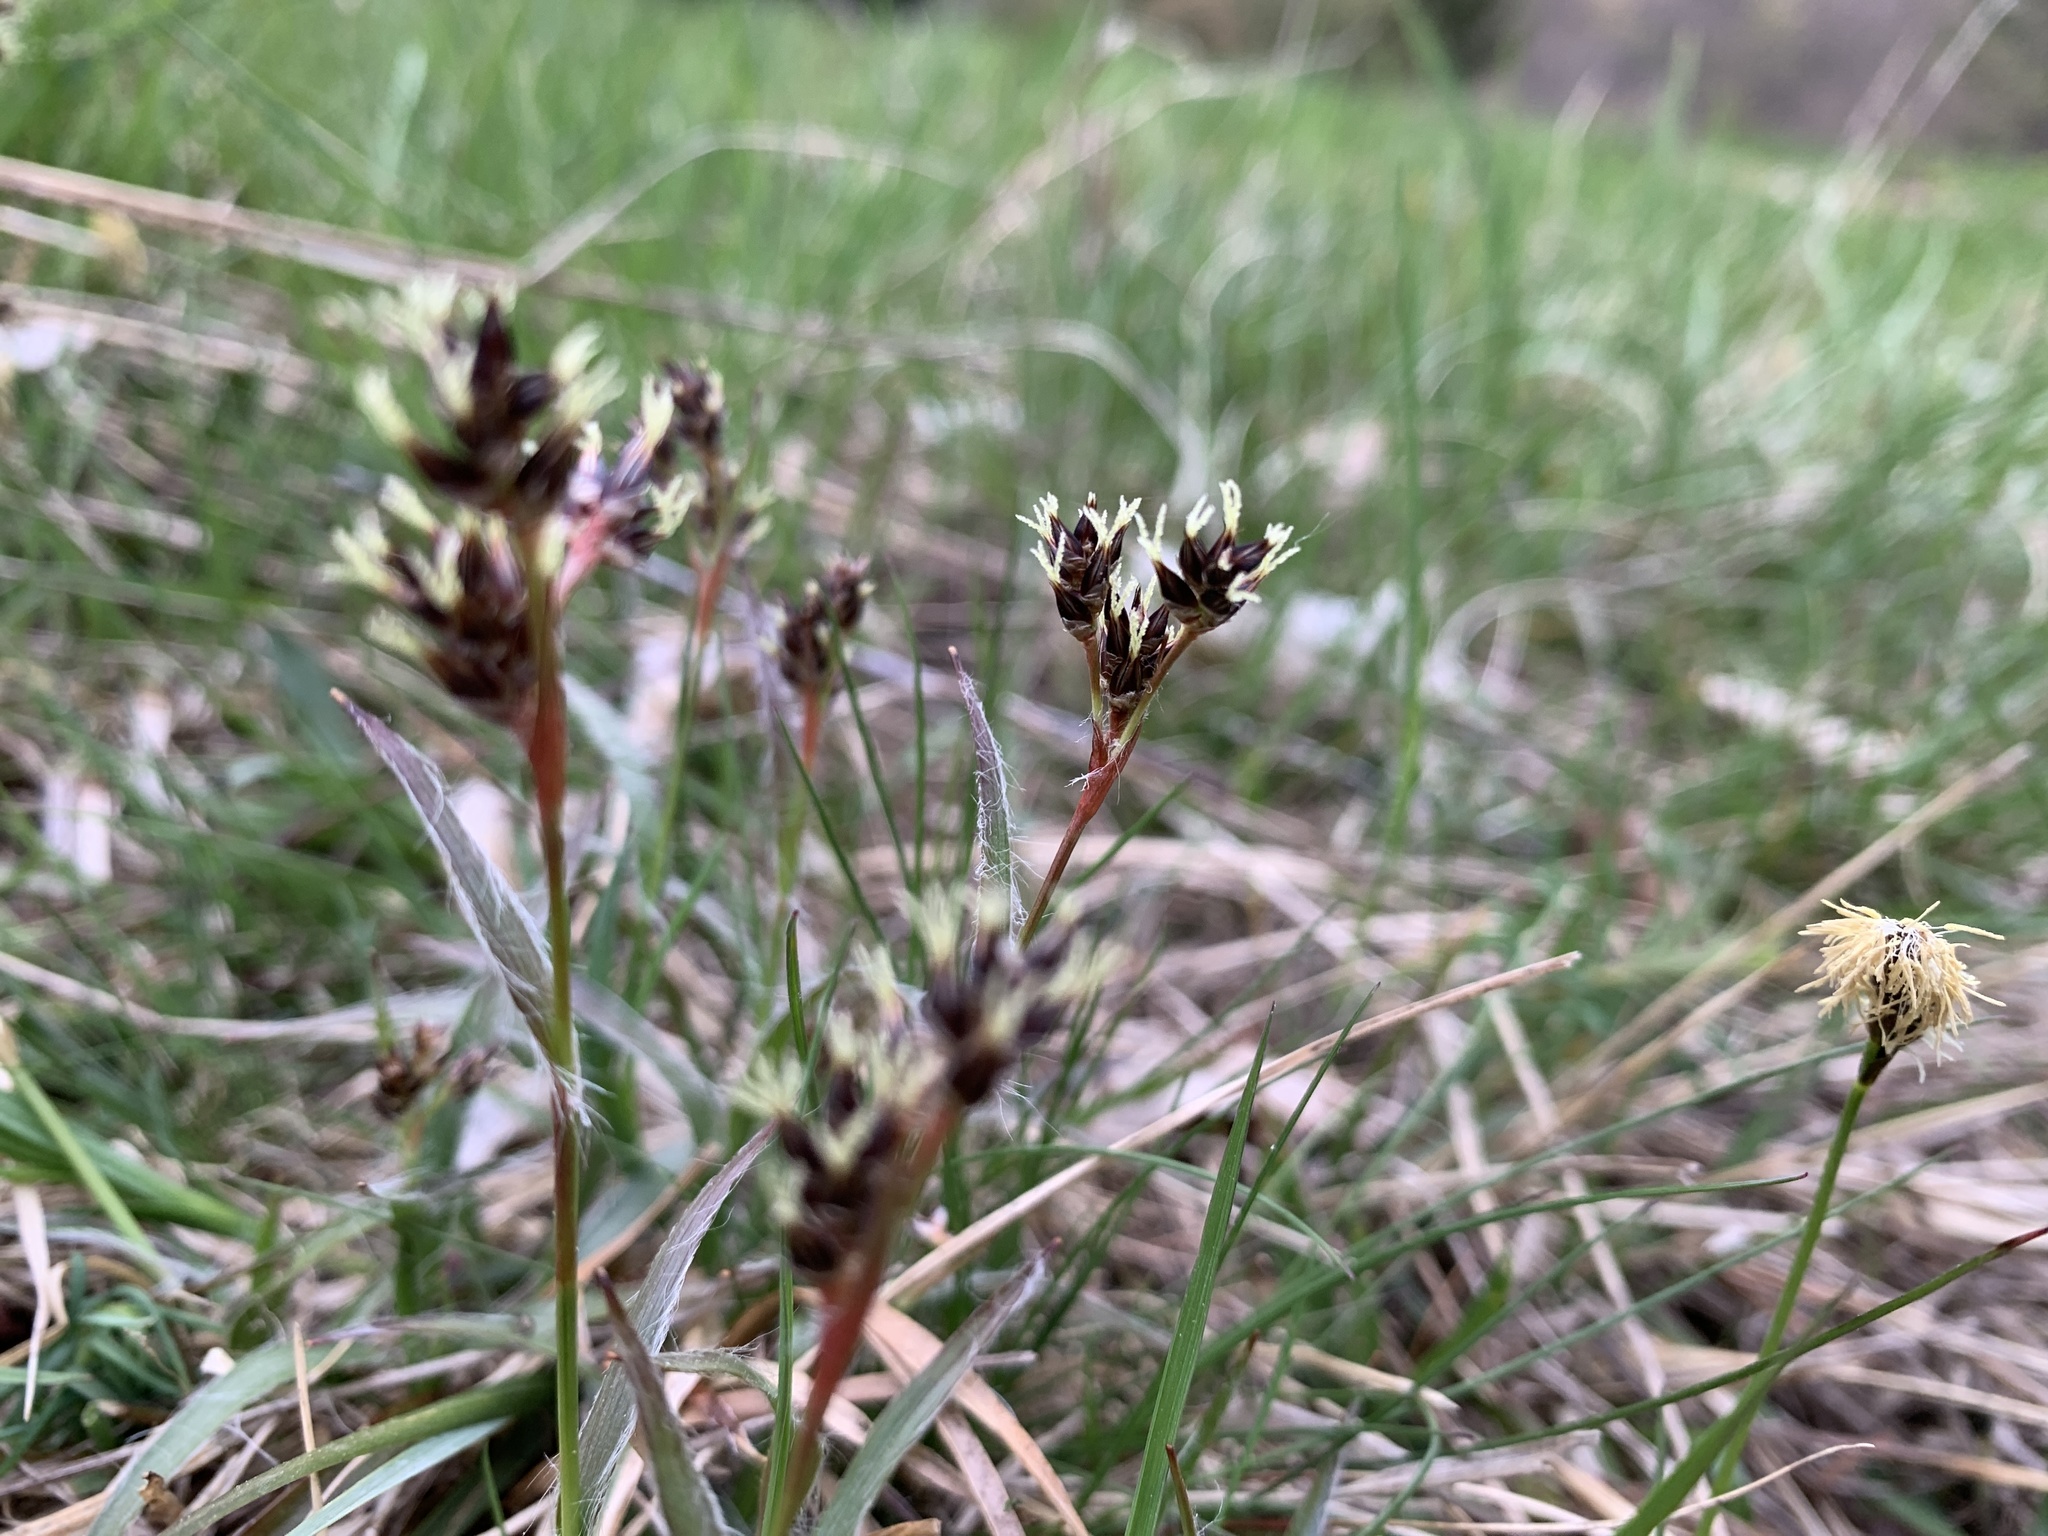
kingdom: Plantae
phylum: Tracheophyta
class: Liliopsida
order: Poales
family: Juncaceae
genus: Luzula
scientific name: Luzula campestris
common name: Field wood-rush
